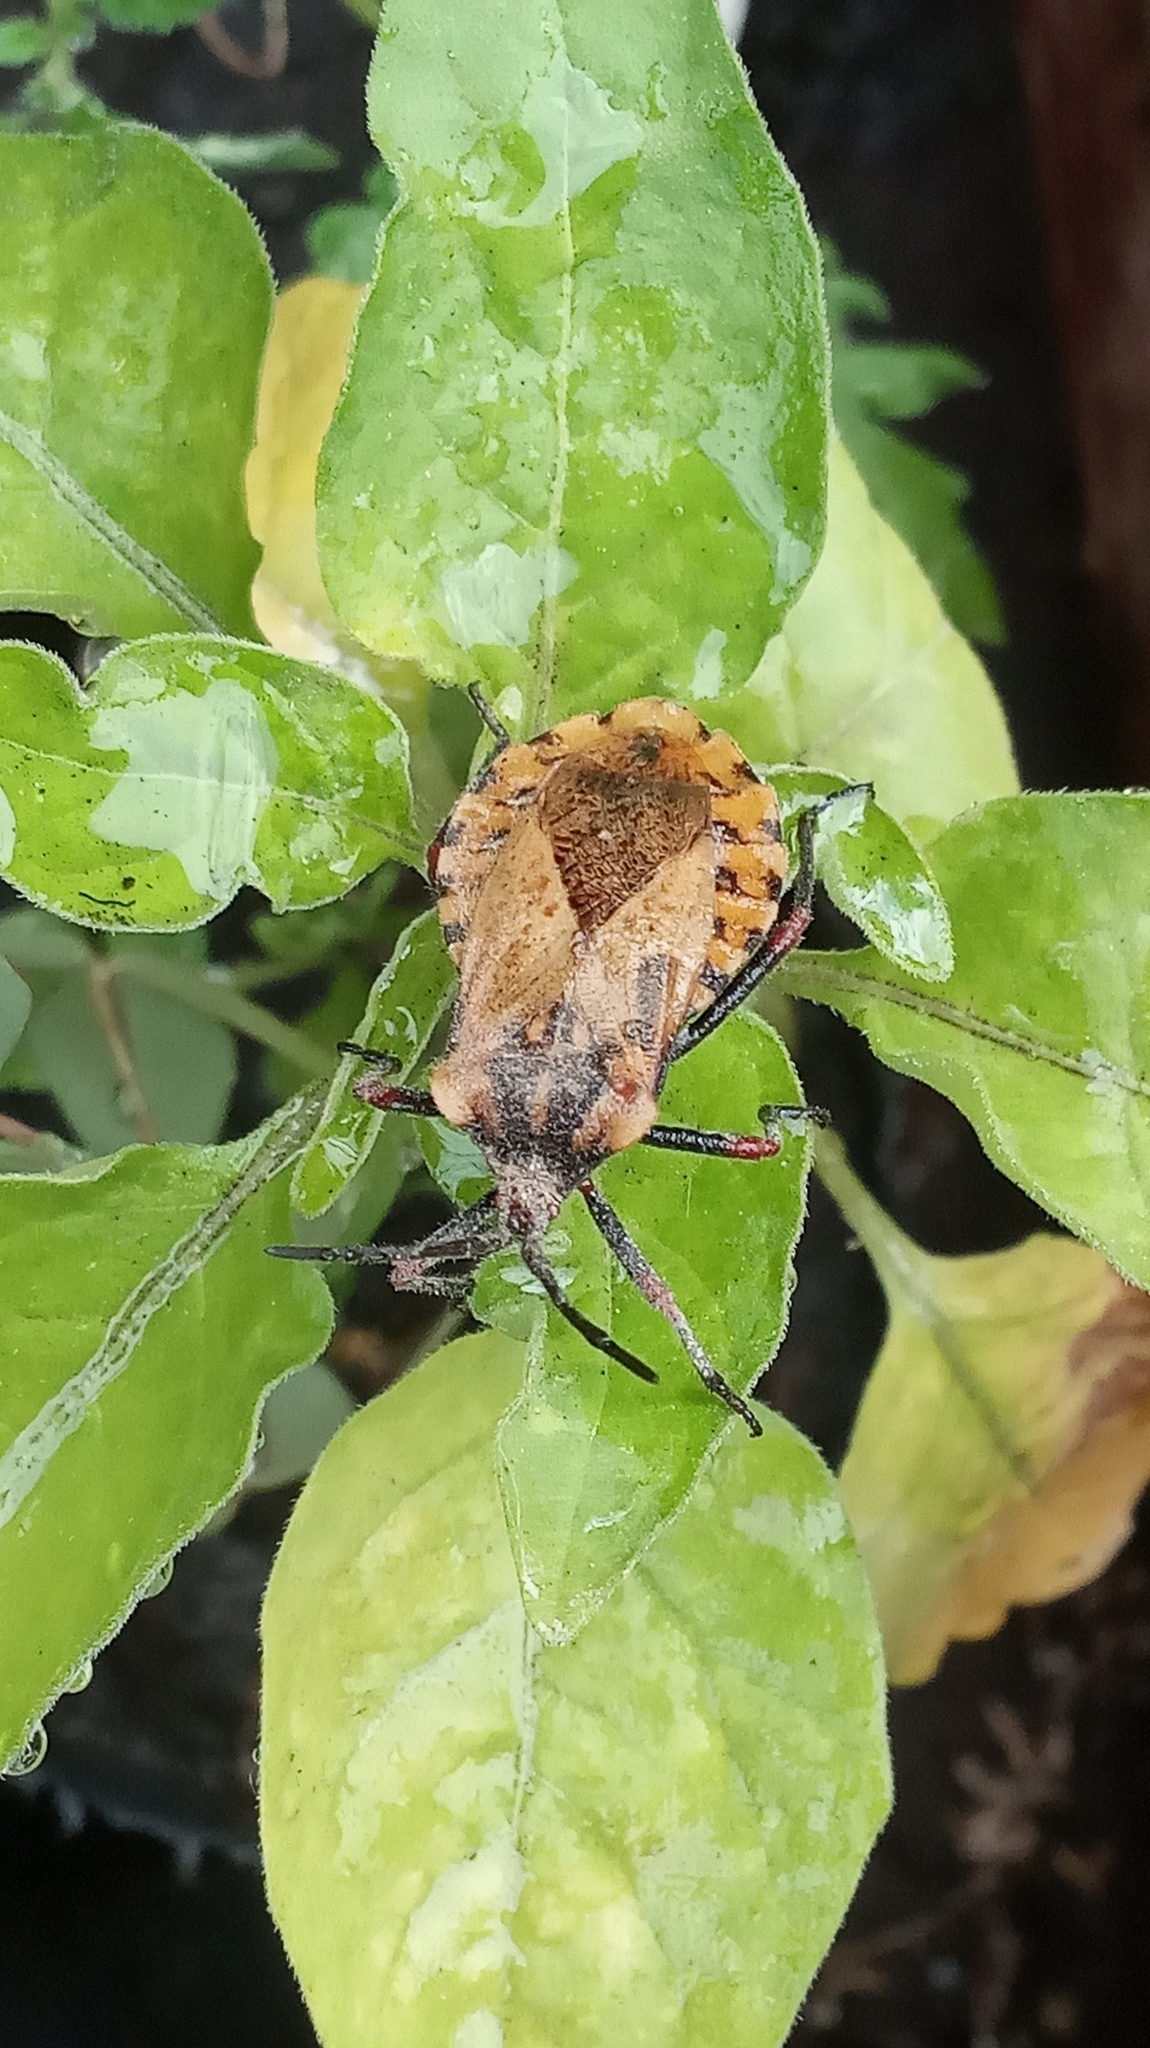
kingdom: Animalia
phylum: Arthropoda
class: Insecta
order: Hemiptera
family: Coreidae
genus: Spartocera
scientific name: Spartocera fusca
